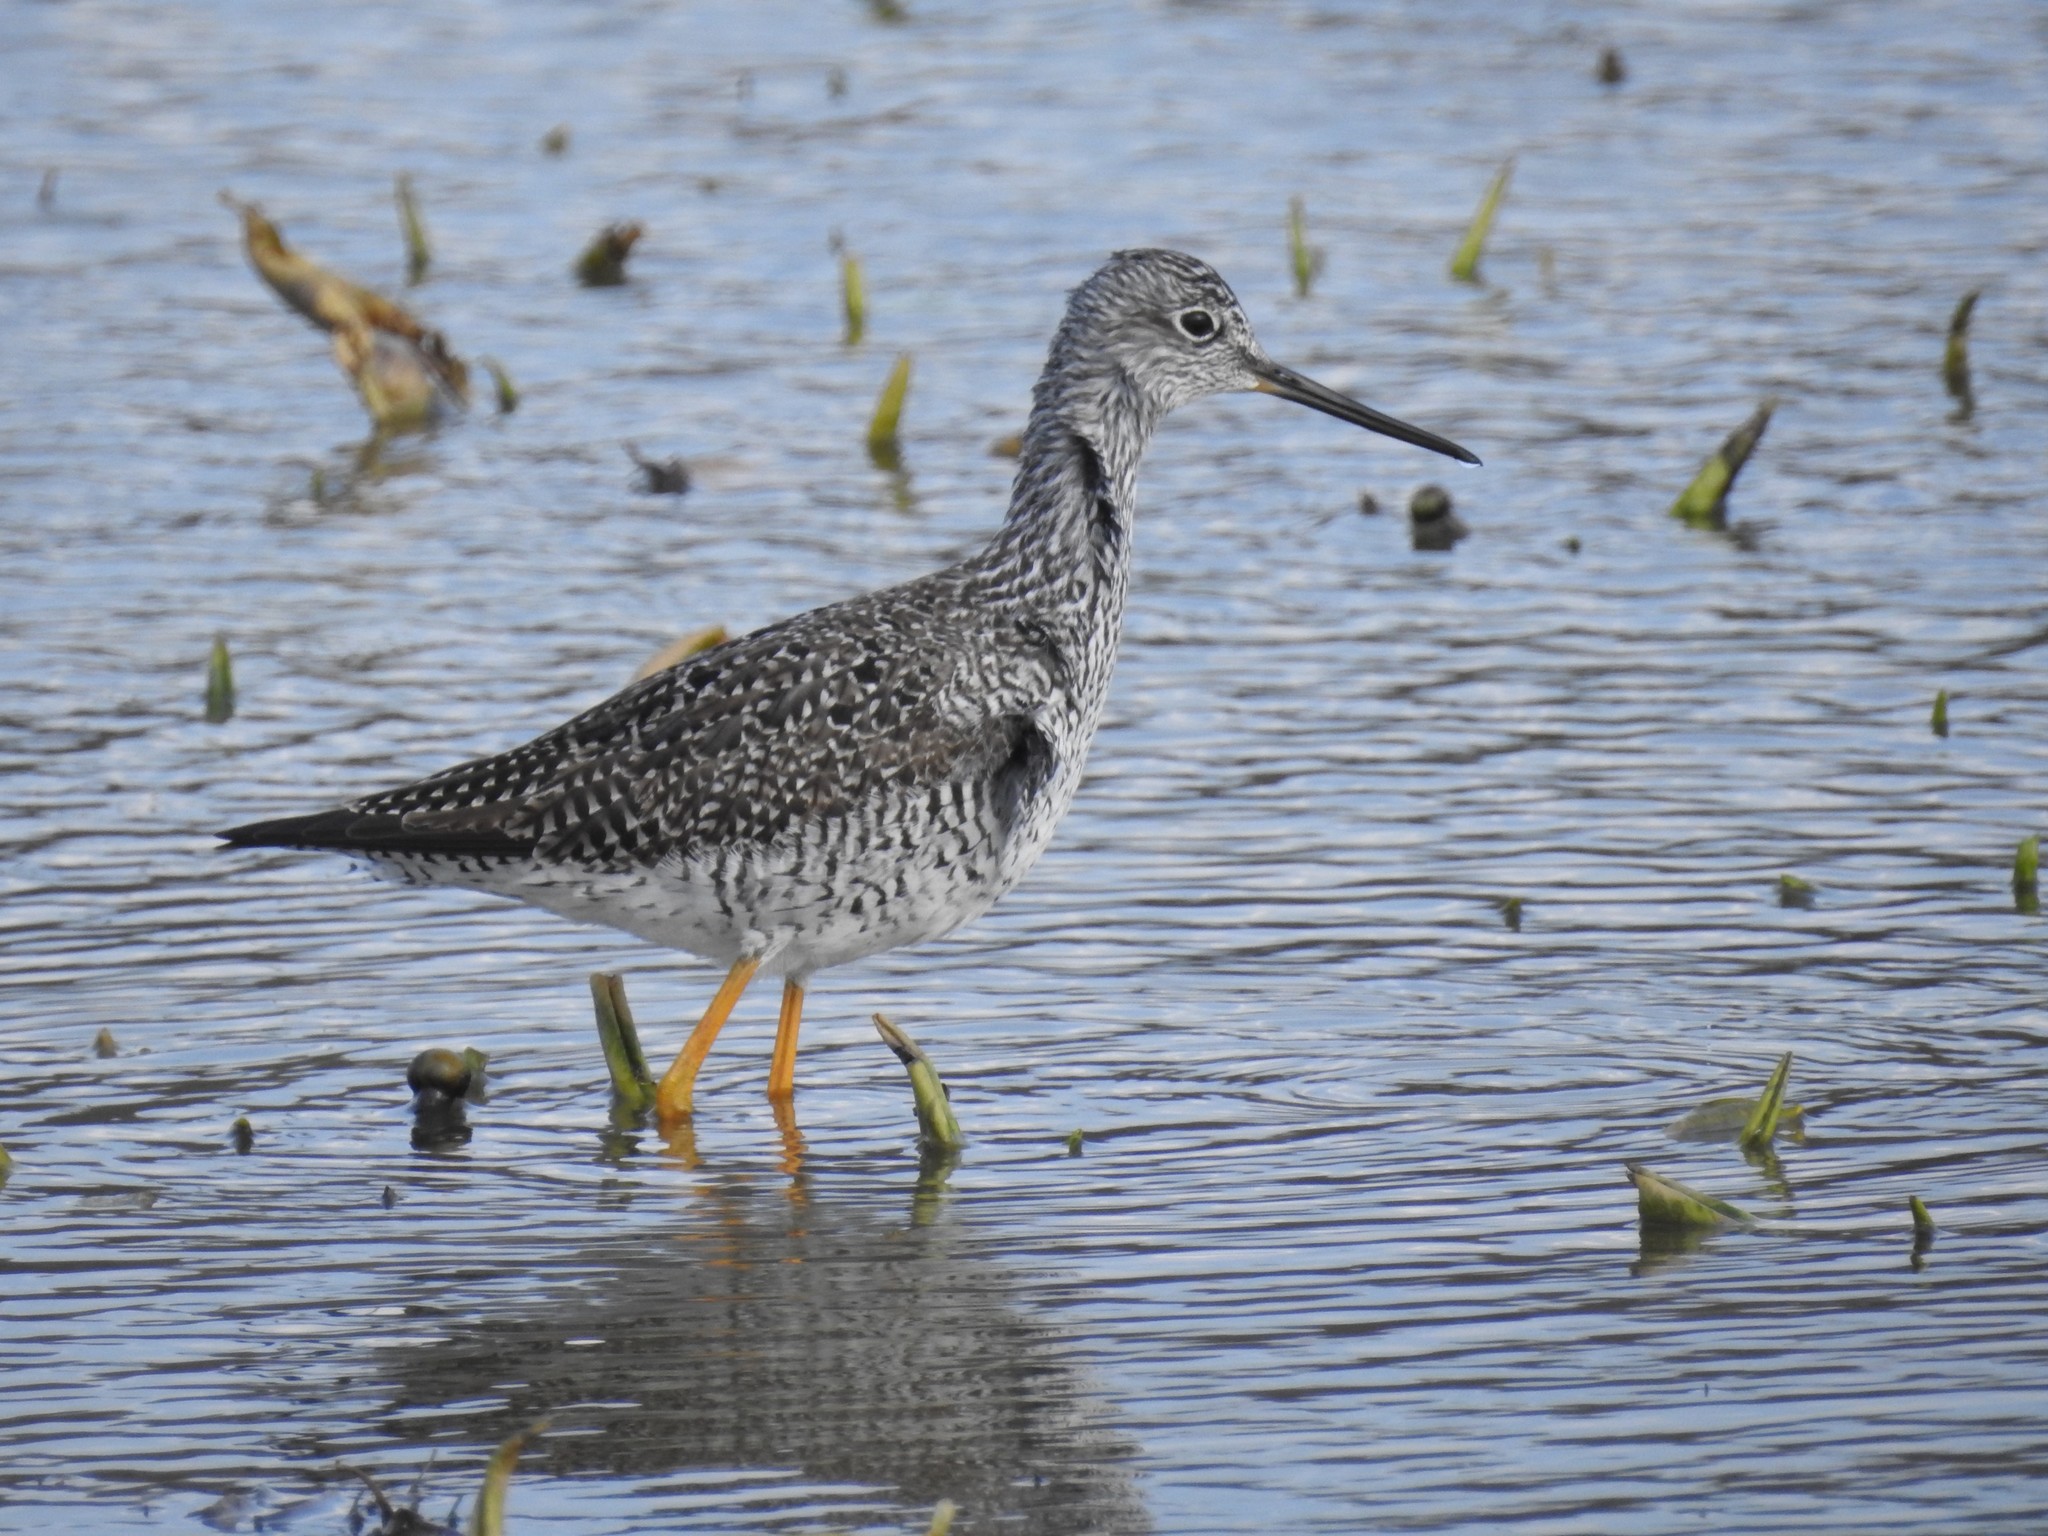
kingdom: Animalia
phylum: Chordata
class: Aves
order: Charadriiformes
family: Scolopacidae
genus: Tringa
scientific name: Tringa melanoleuca
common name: Greater yellowlegs
